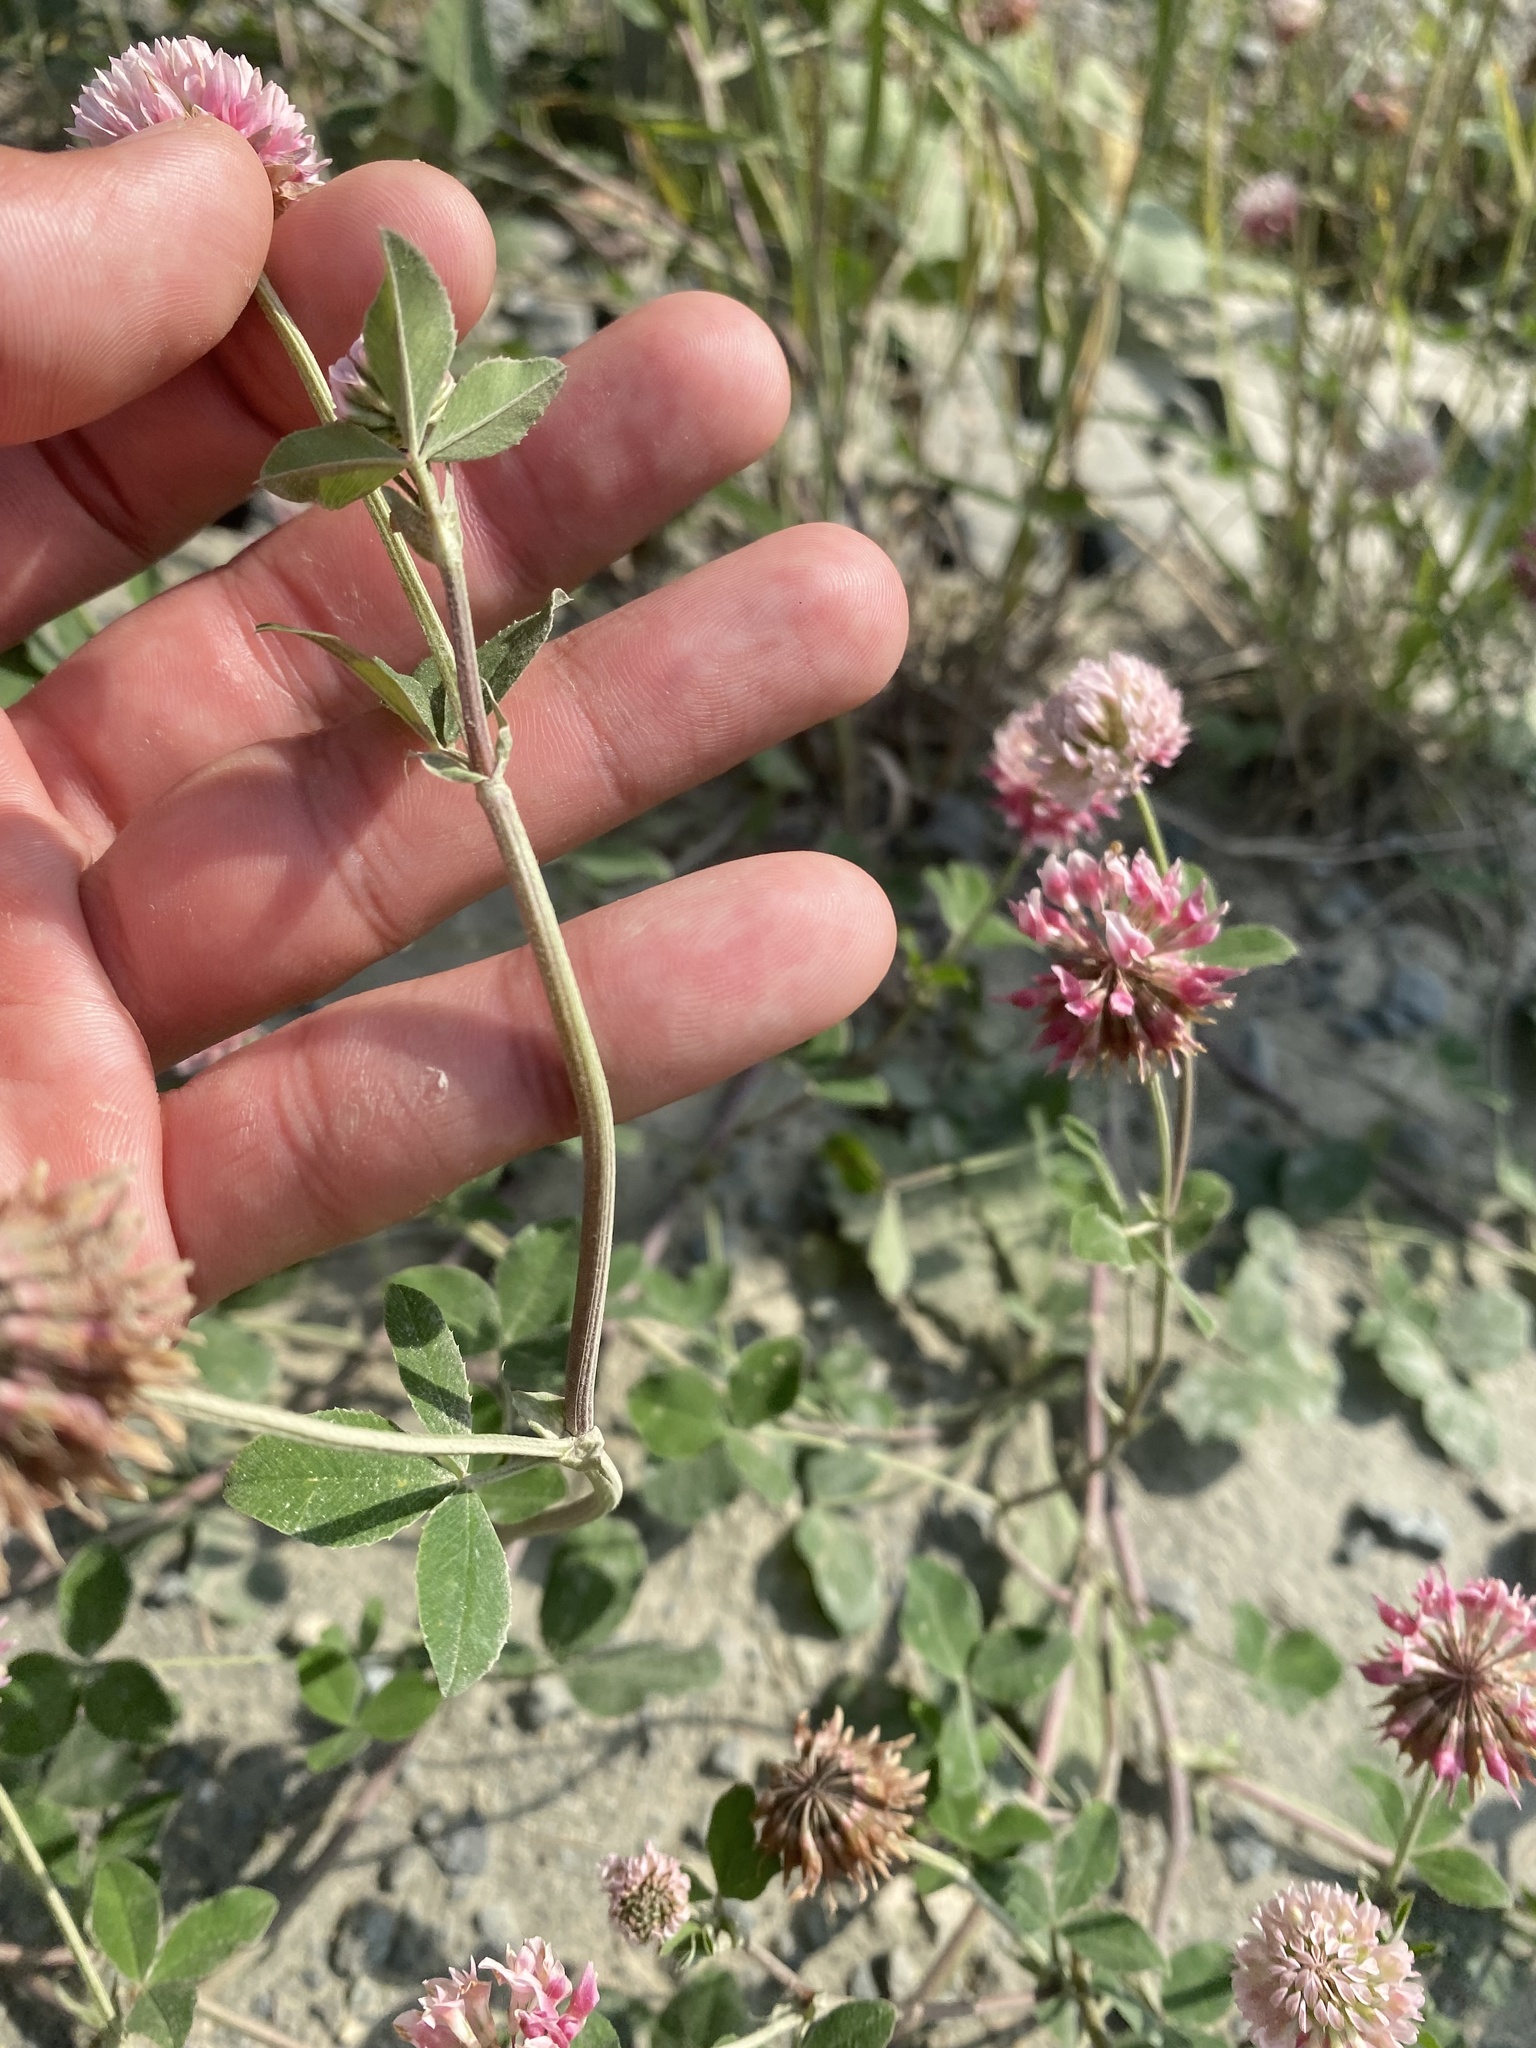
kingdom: Plantae
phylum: Tracheophyta
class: Magnoliopsida
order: Fabales
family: Fabaceae
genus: Trifolium
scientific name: Trifolium hybridum
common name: Alsike clover
